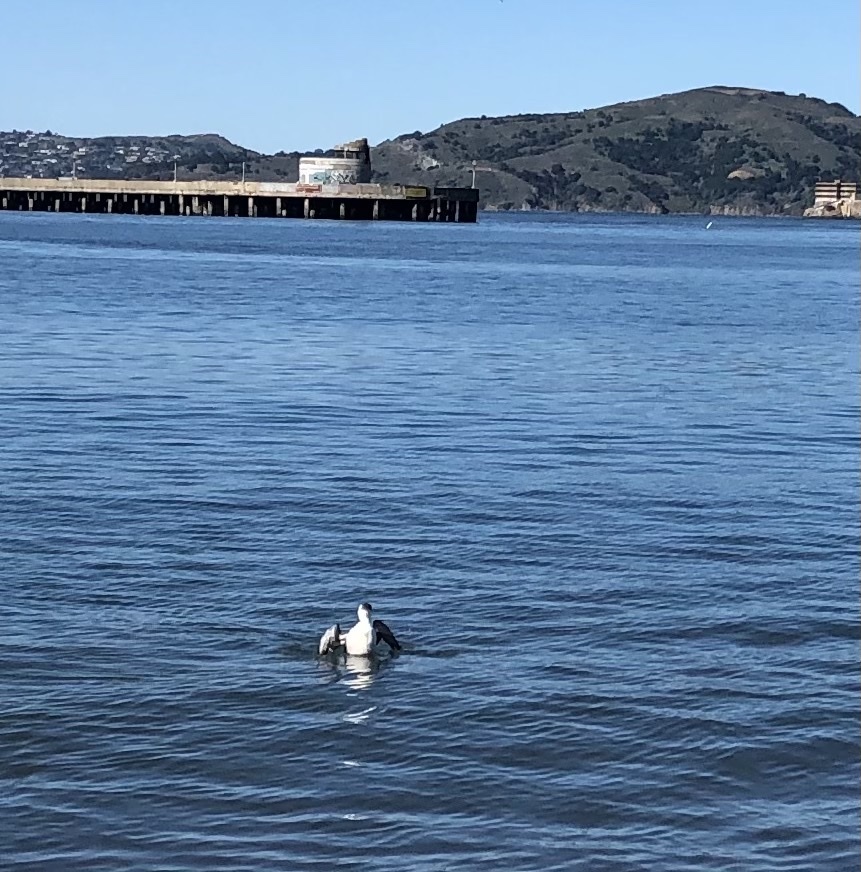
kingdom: Animalia
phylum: Chordata
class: Aves
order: Charadriiformes
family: Alcidae
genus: Uria
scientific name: Uria aalge
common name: Common murre
